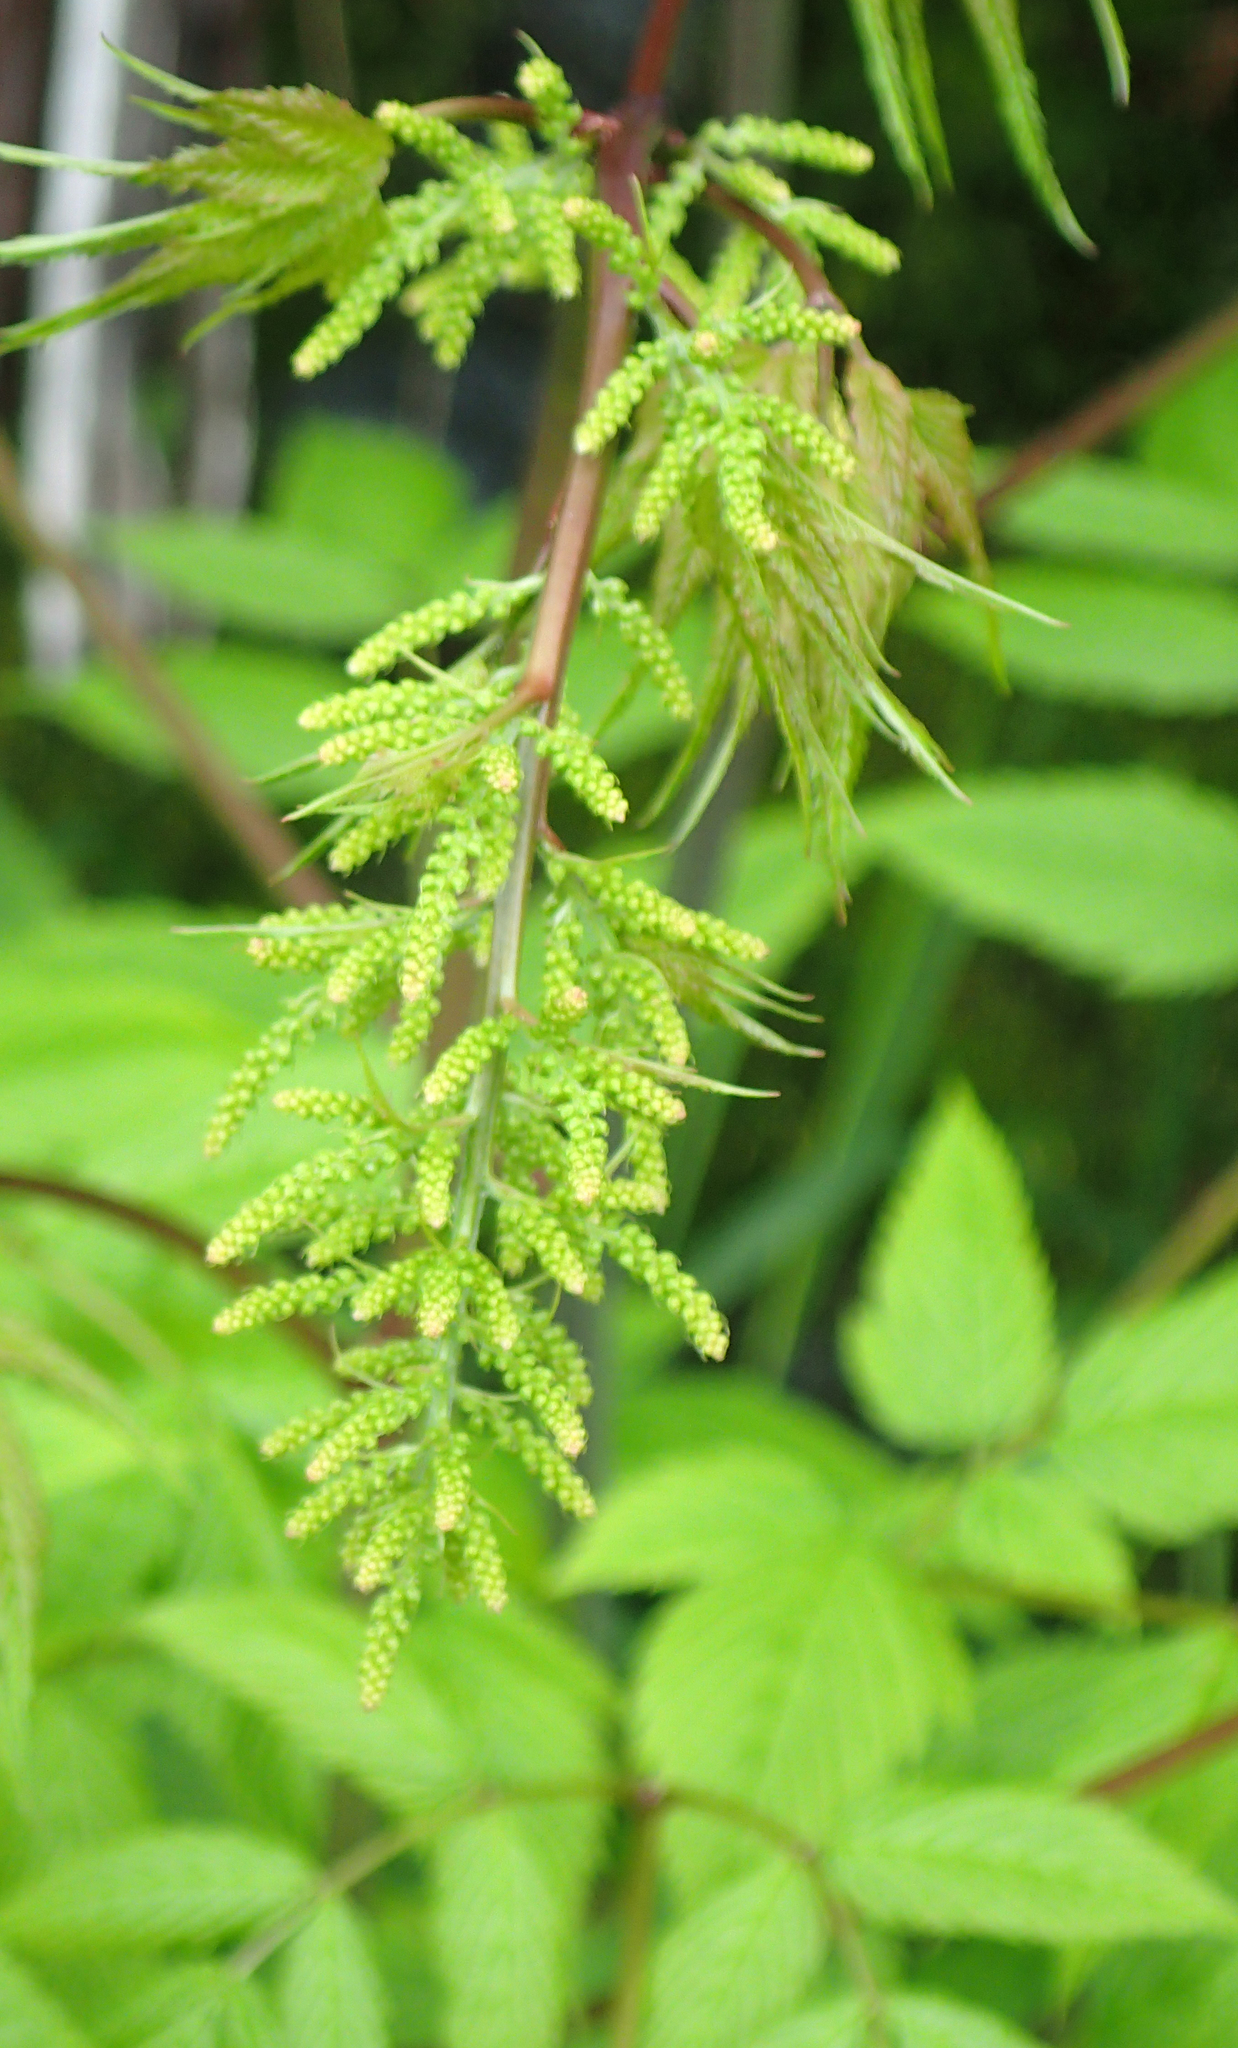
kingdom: Plantae
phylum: Tracheophyta
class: Magnoliopsida
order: Rosales
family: Rosaceae
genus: Aruncus
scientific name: Aruncus dioicus
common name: Buck's-beard
